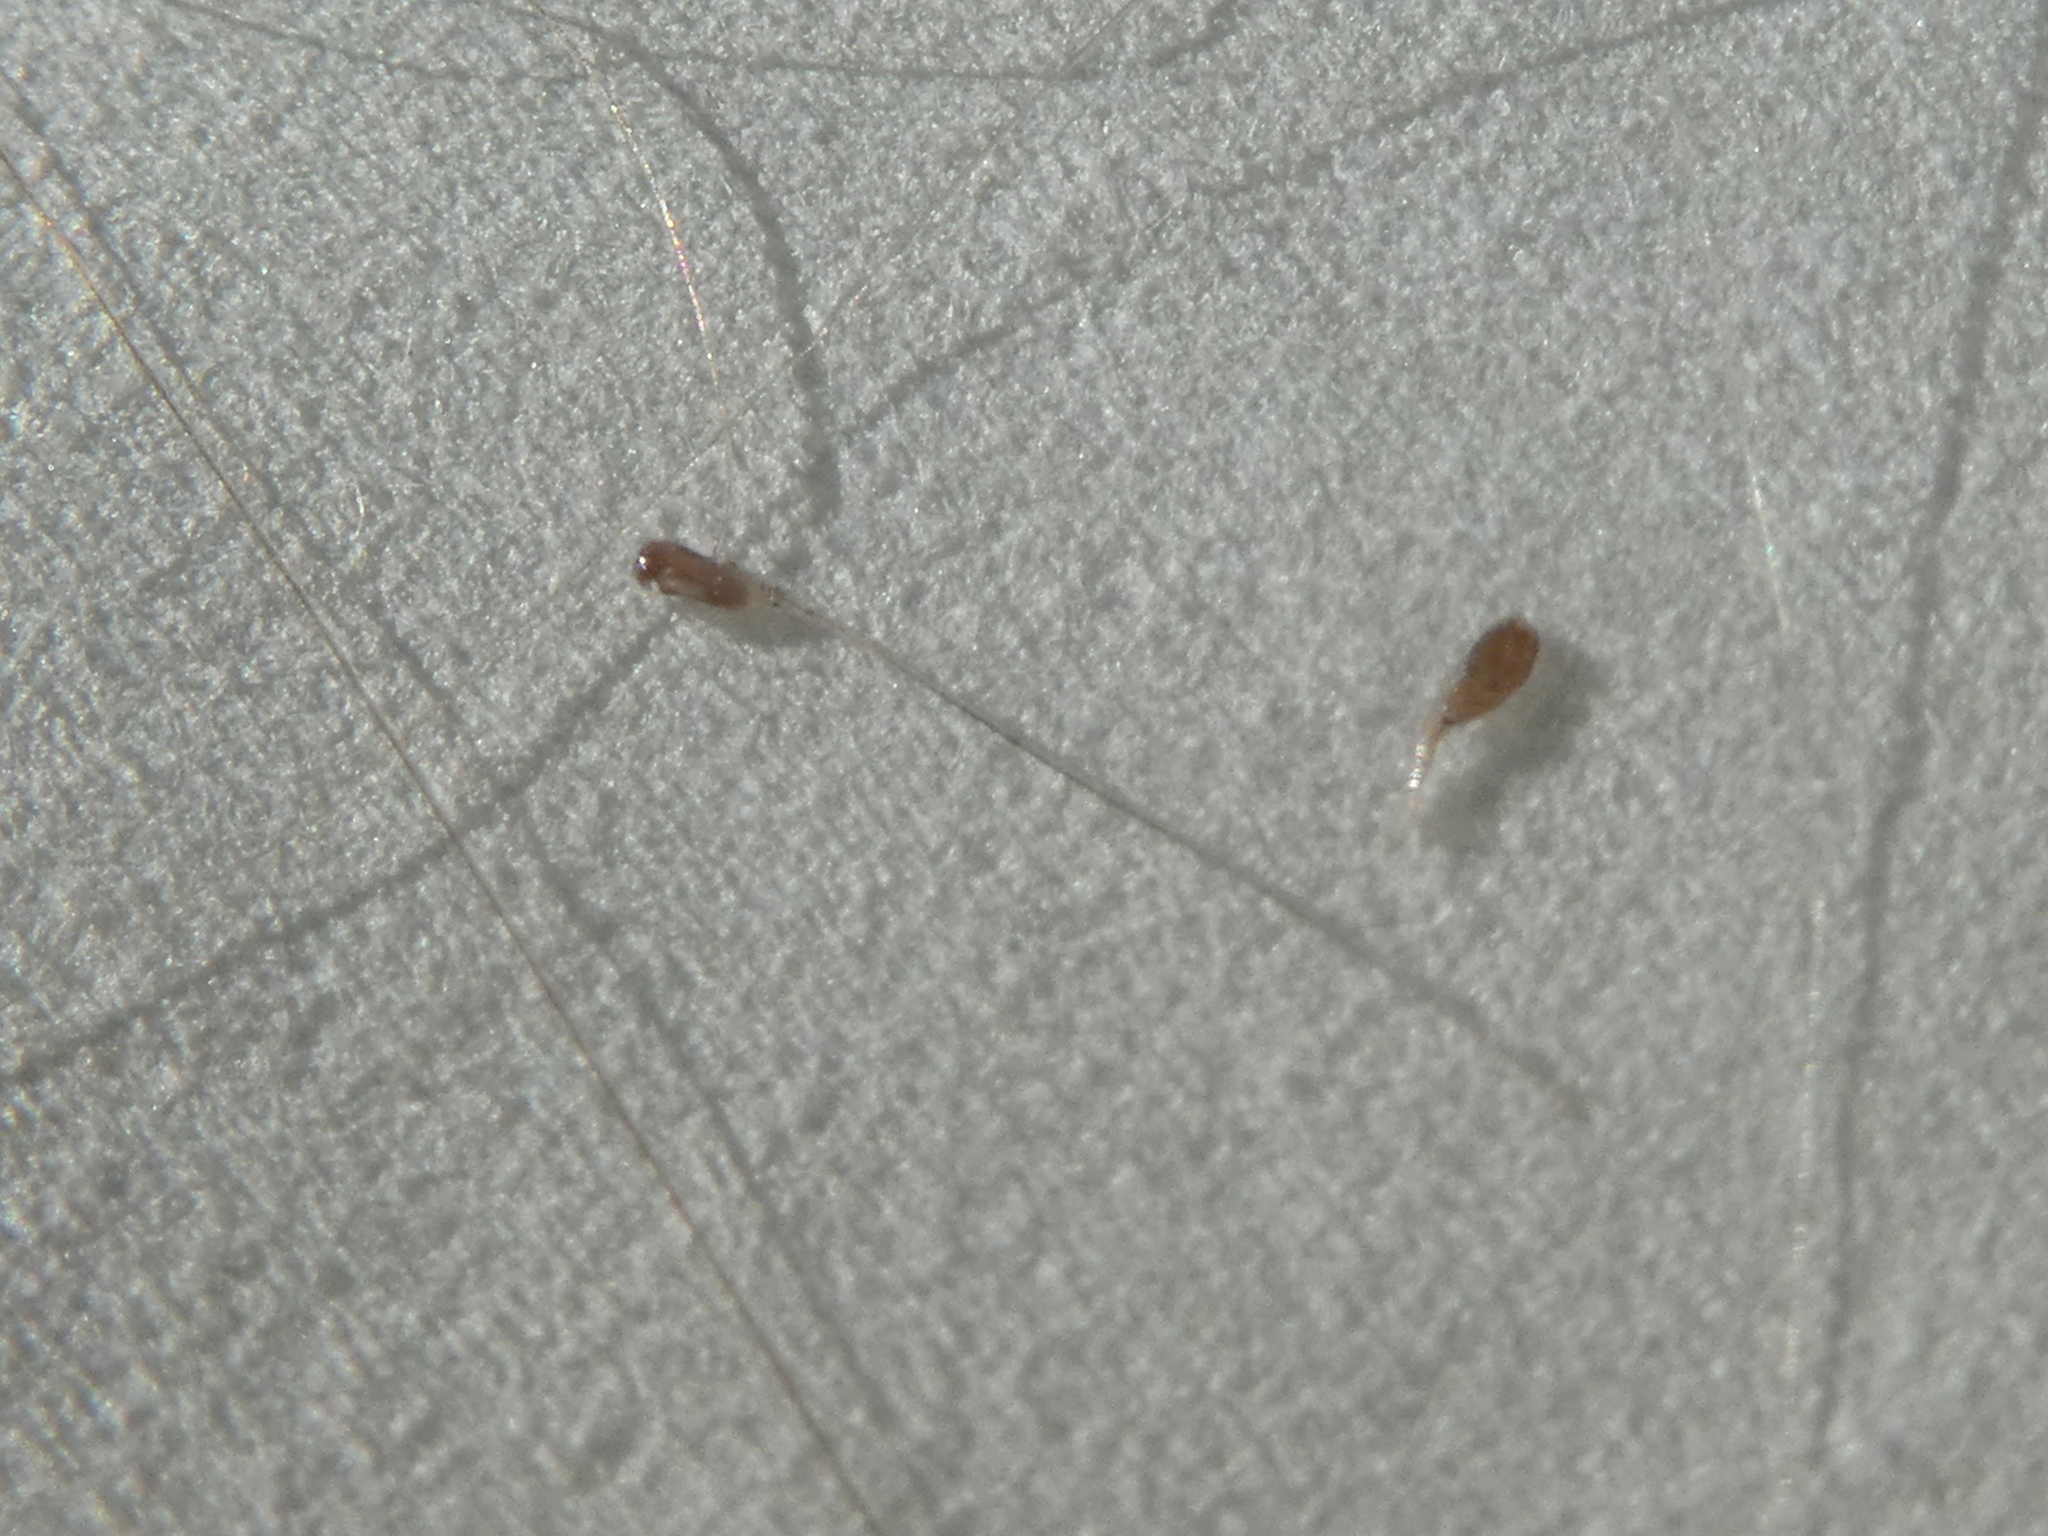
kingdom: Animalia
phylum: Arthropoda
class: Insecta
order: Psocodea
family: Pediculidae
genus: Pediculus
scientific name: Pediculus humanus
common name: Body louse
